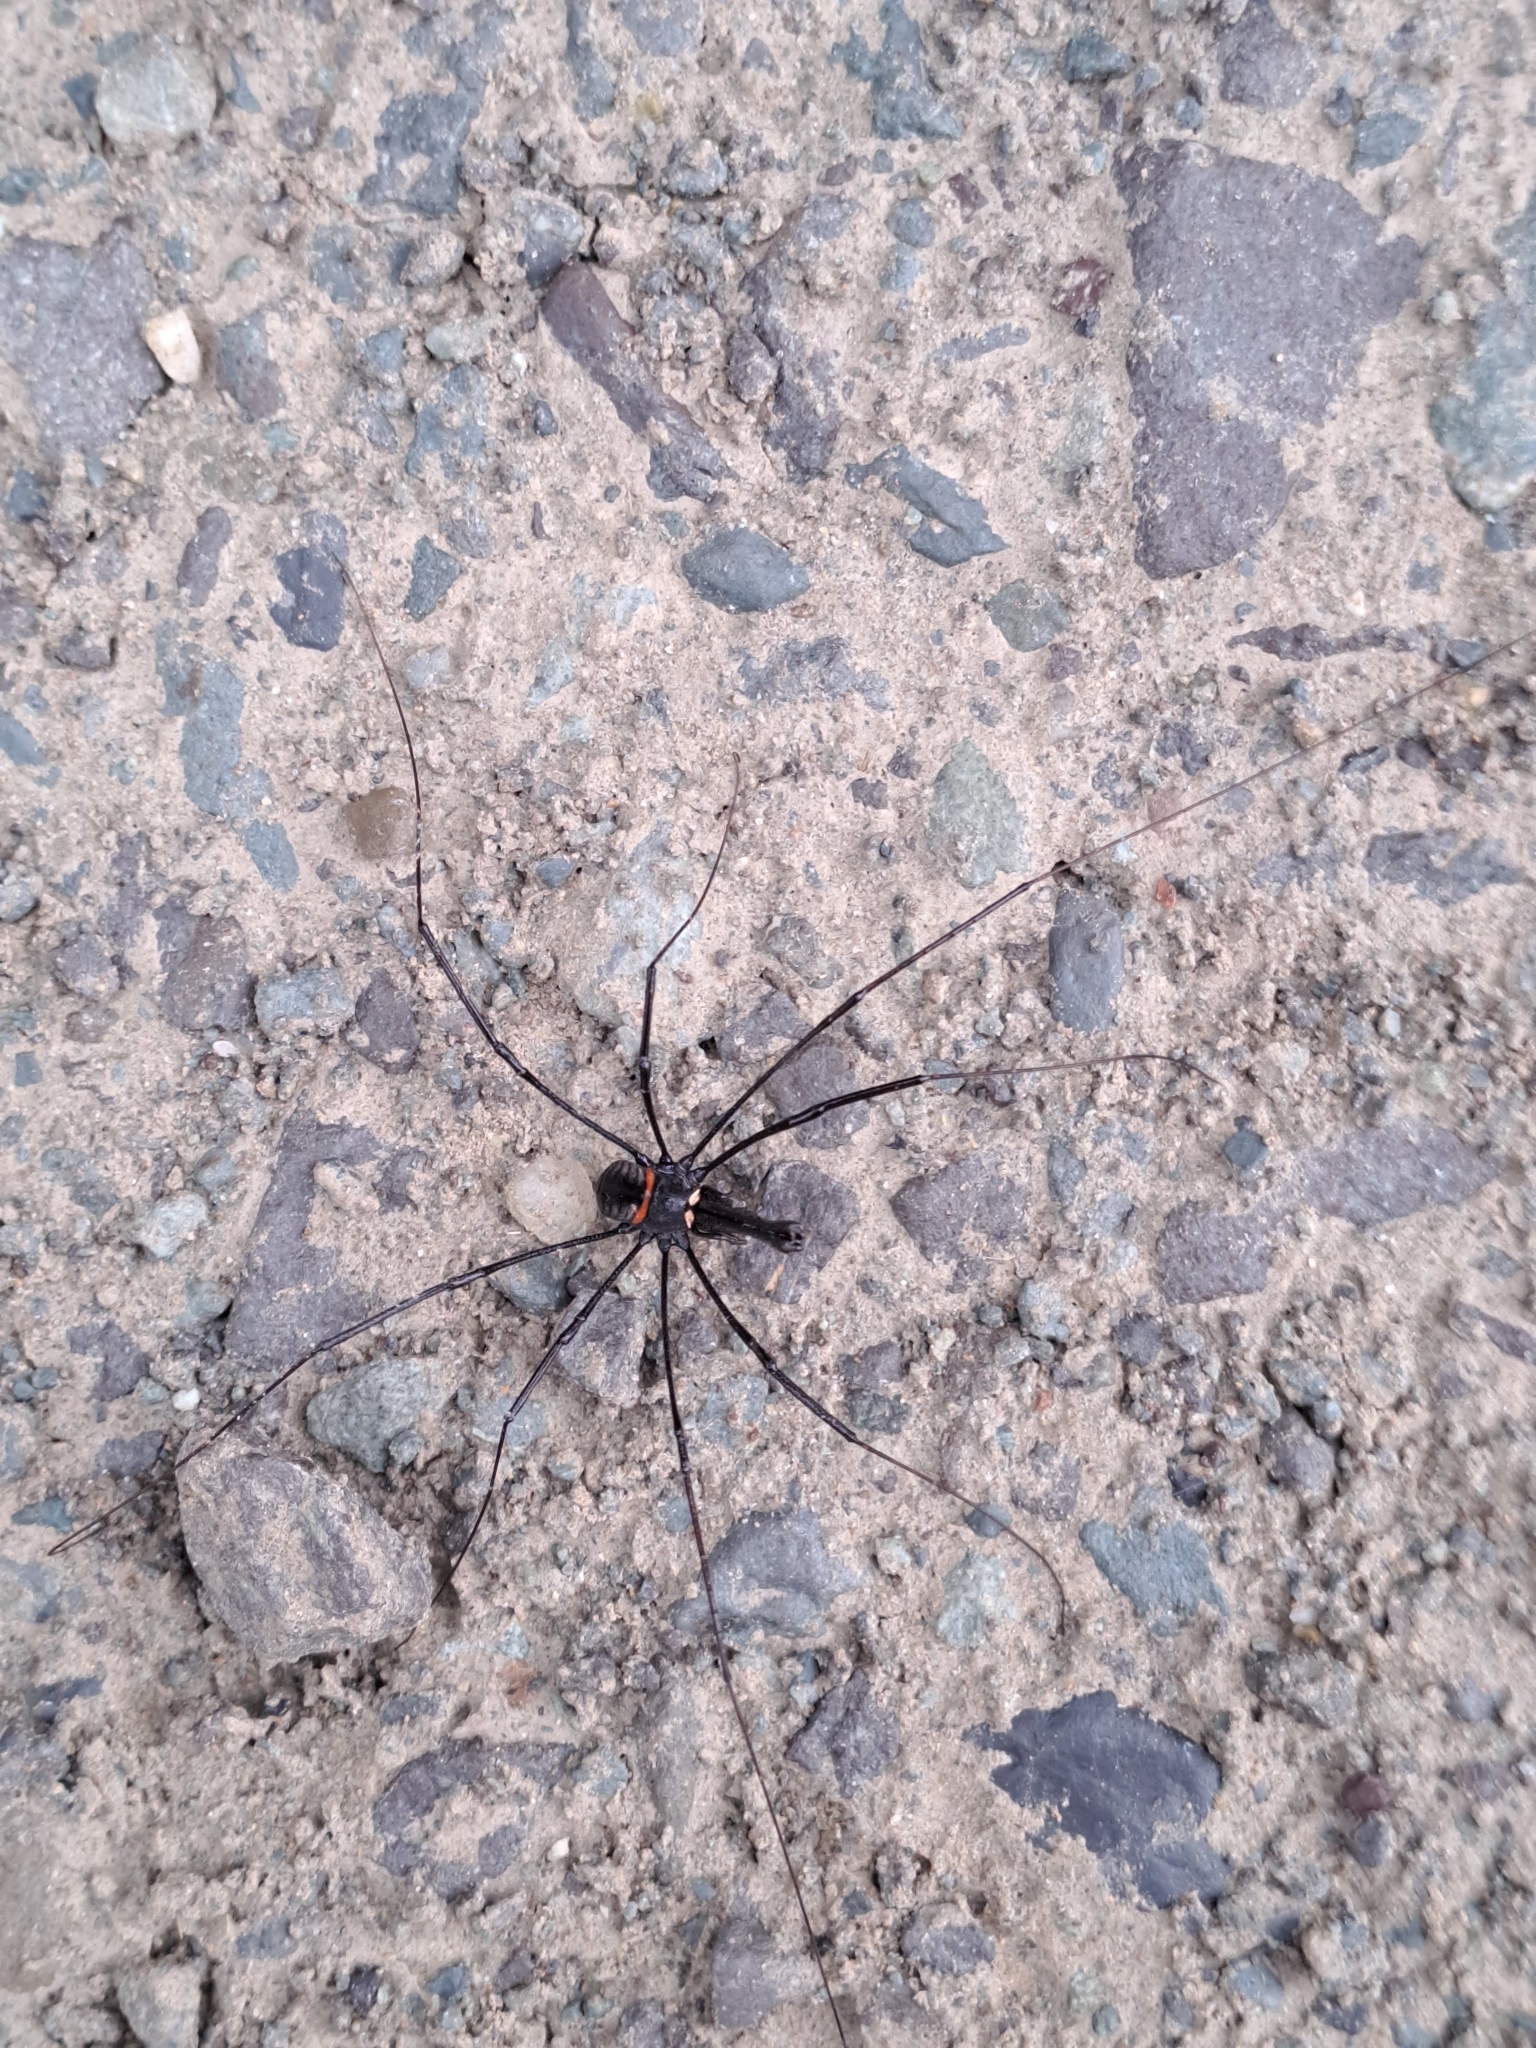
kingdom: Animalia
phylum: Arthropoda
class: Arachnida
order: Opiliones
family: Neopilionidae
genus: Pantopsalis
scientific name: Pantopsalis phocator
